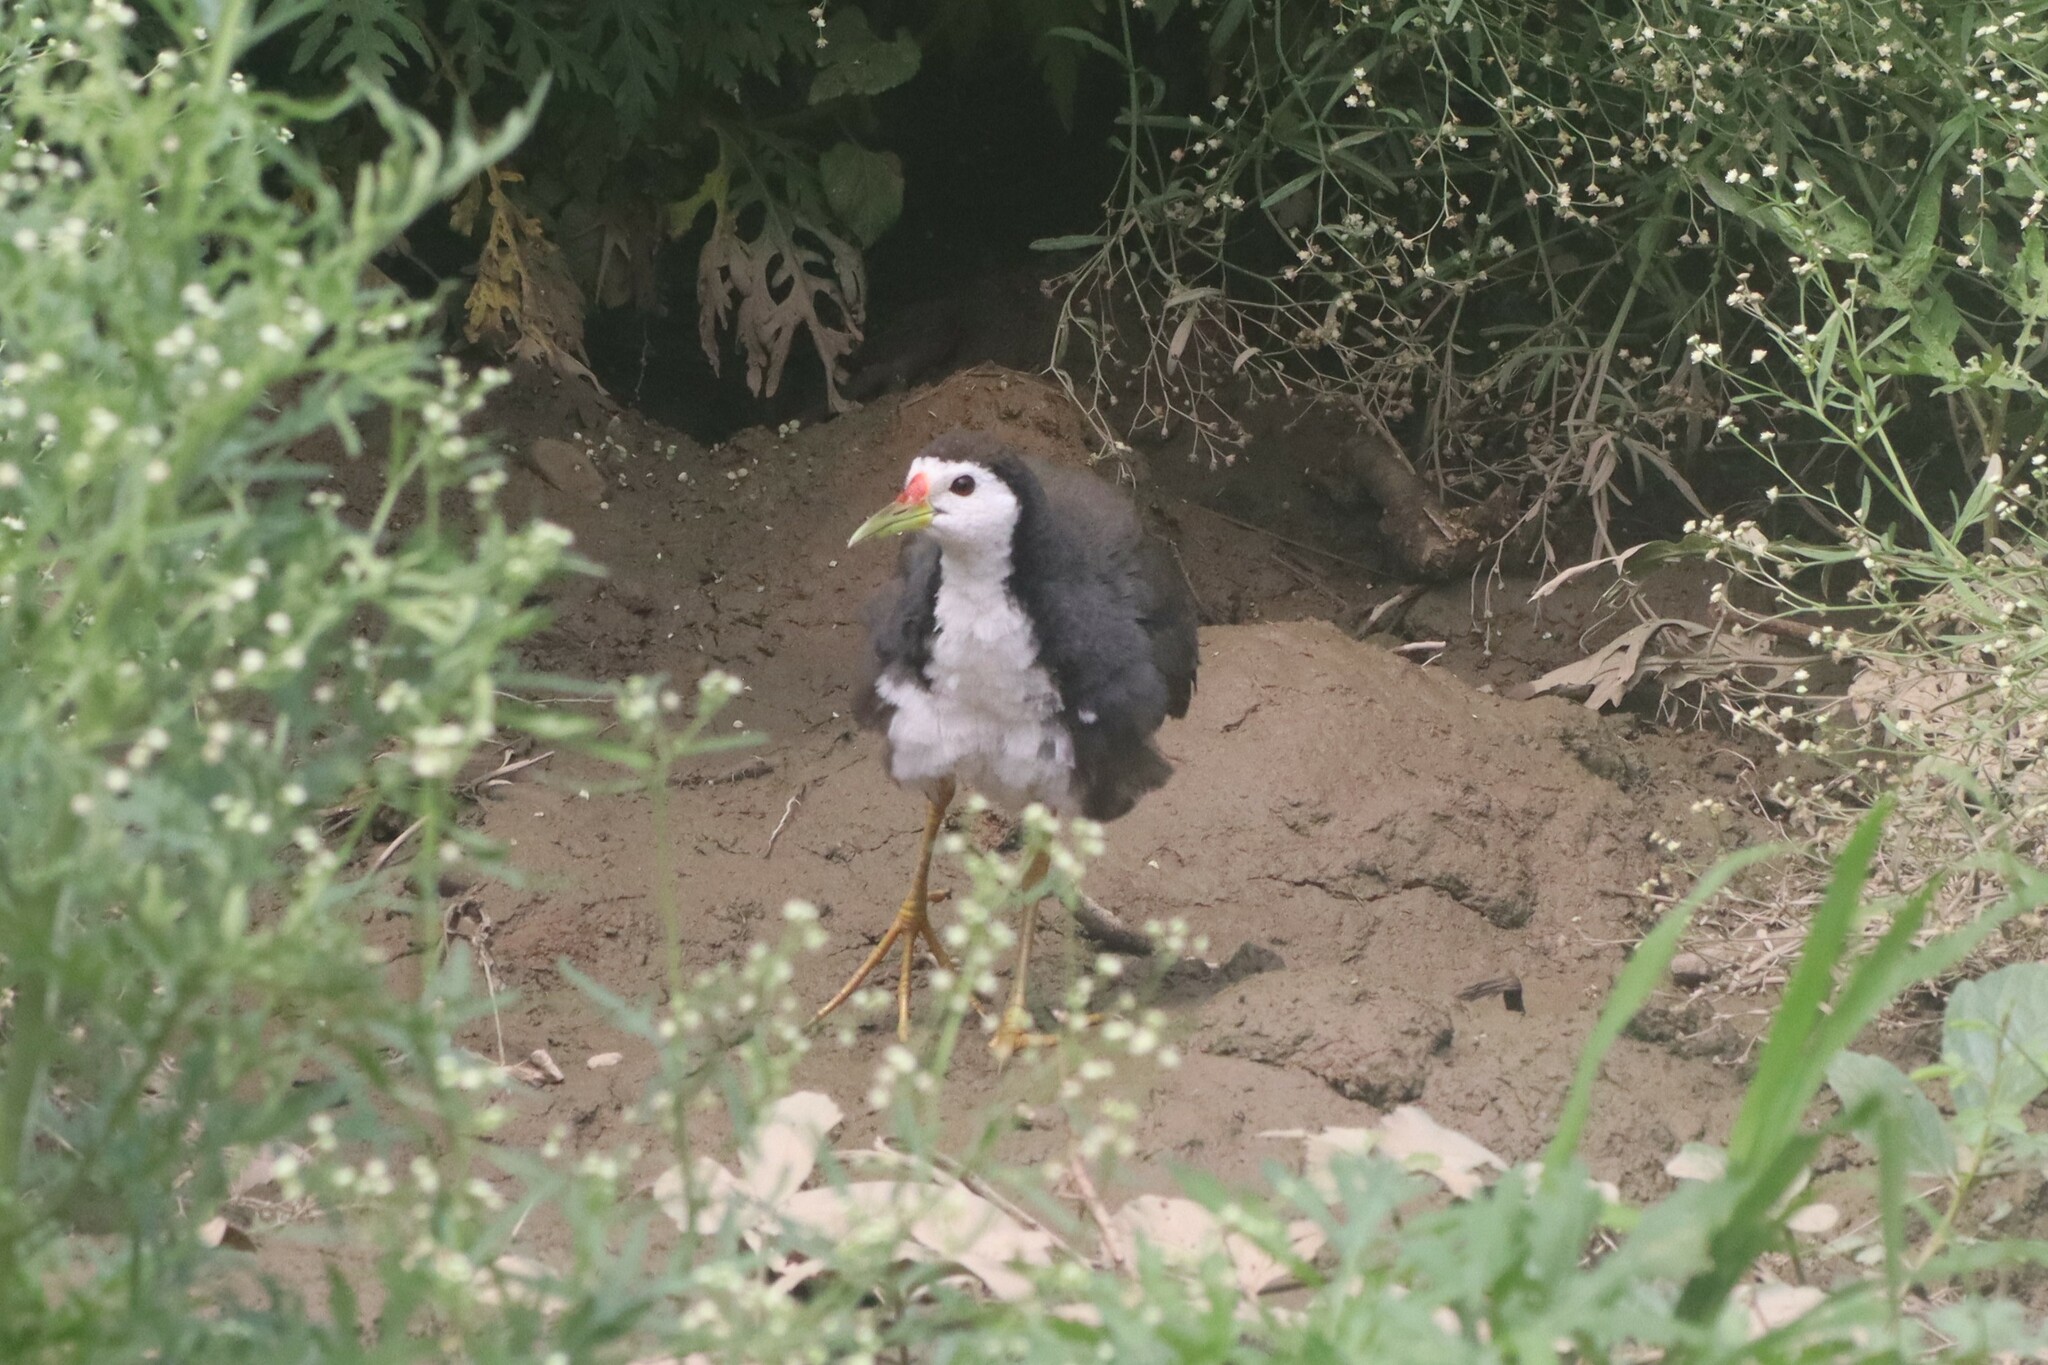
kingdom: Animalia
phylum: Chordata
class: Aves
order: Gruiformes
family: Rallidae
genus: Amaurornis
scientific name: Amaurornis phoenicurus
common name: White-breasted waterhen
